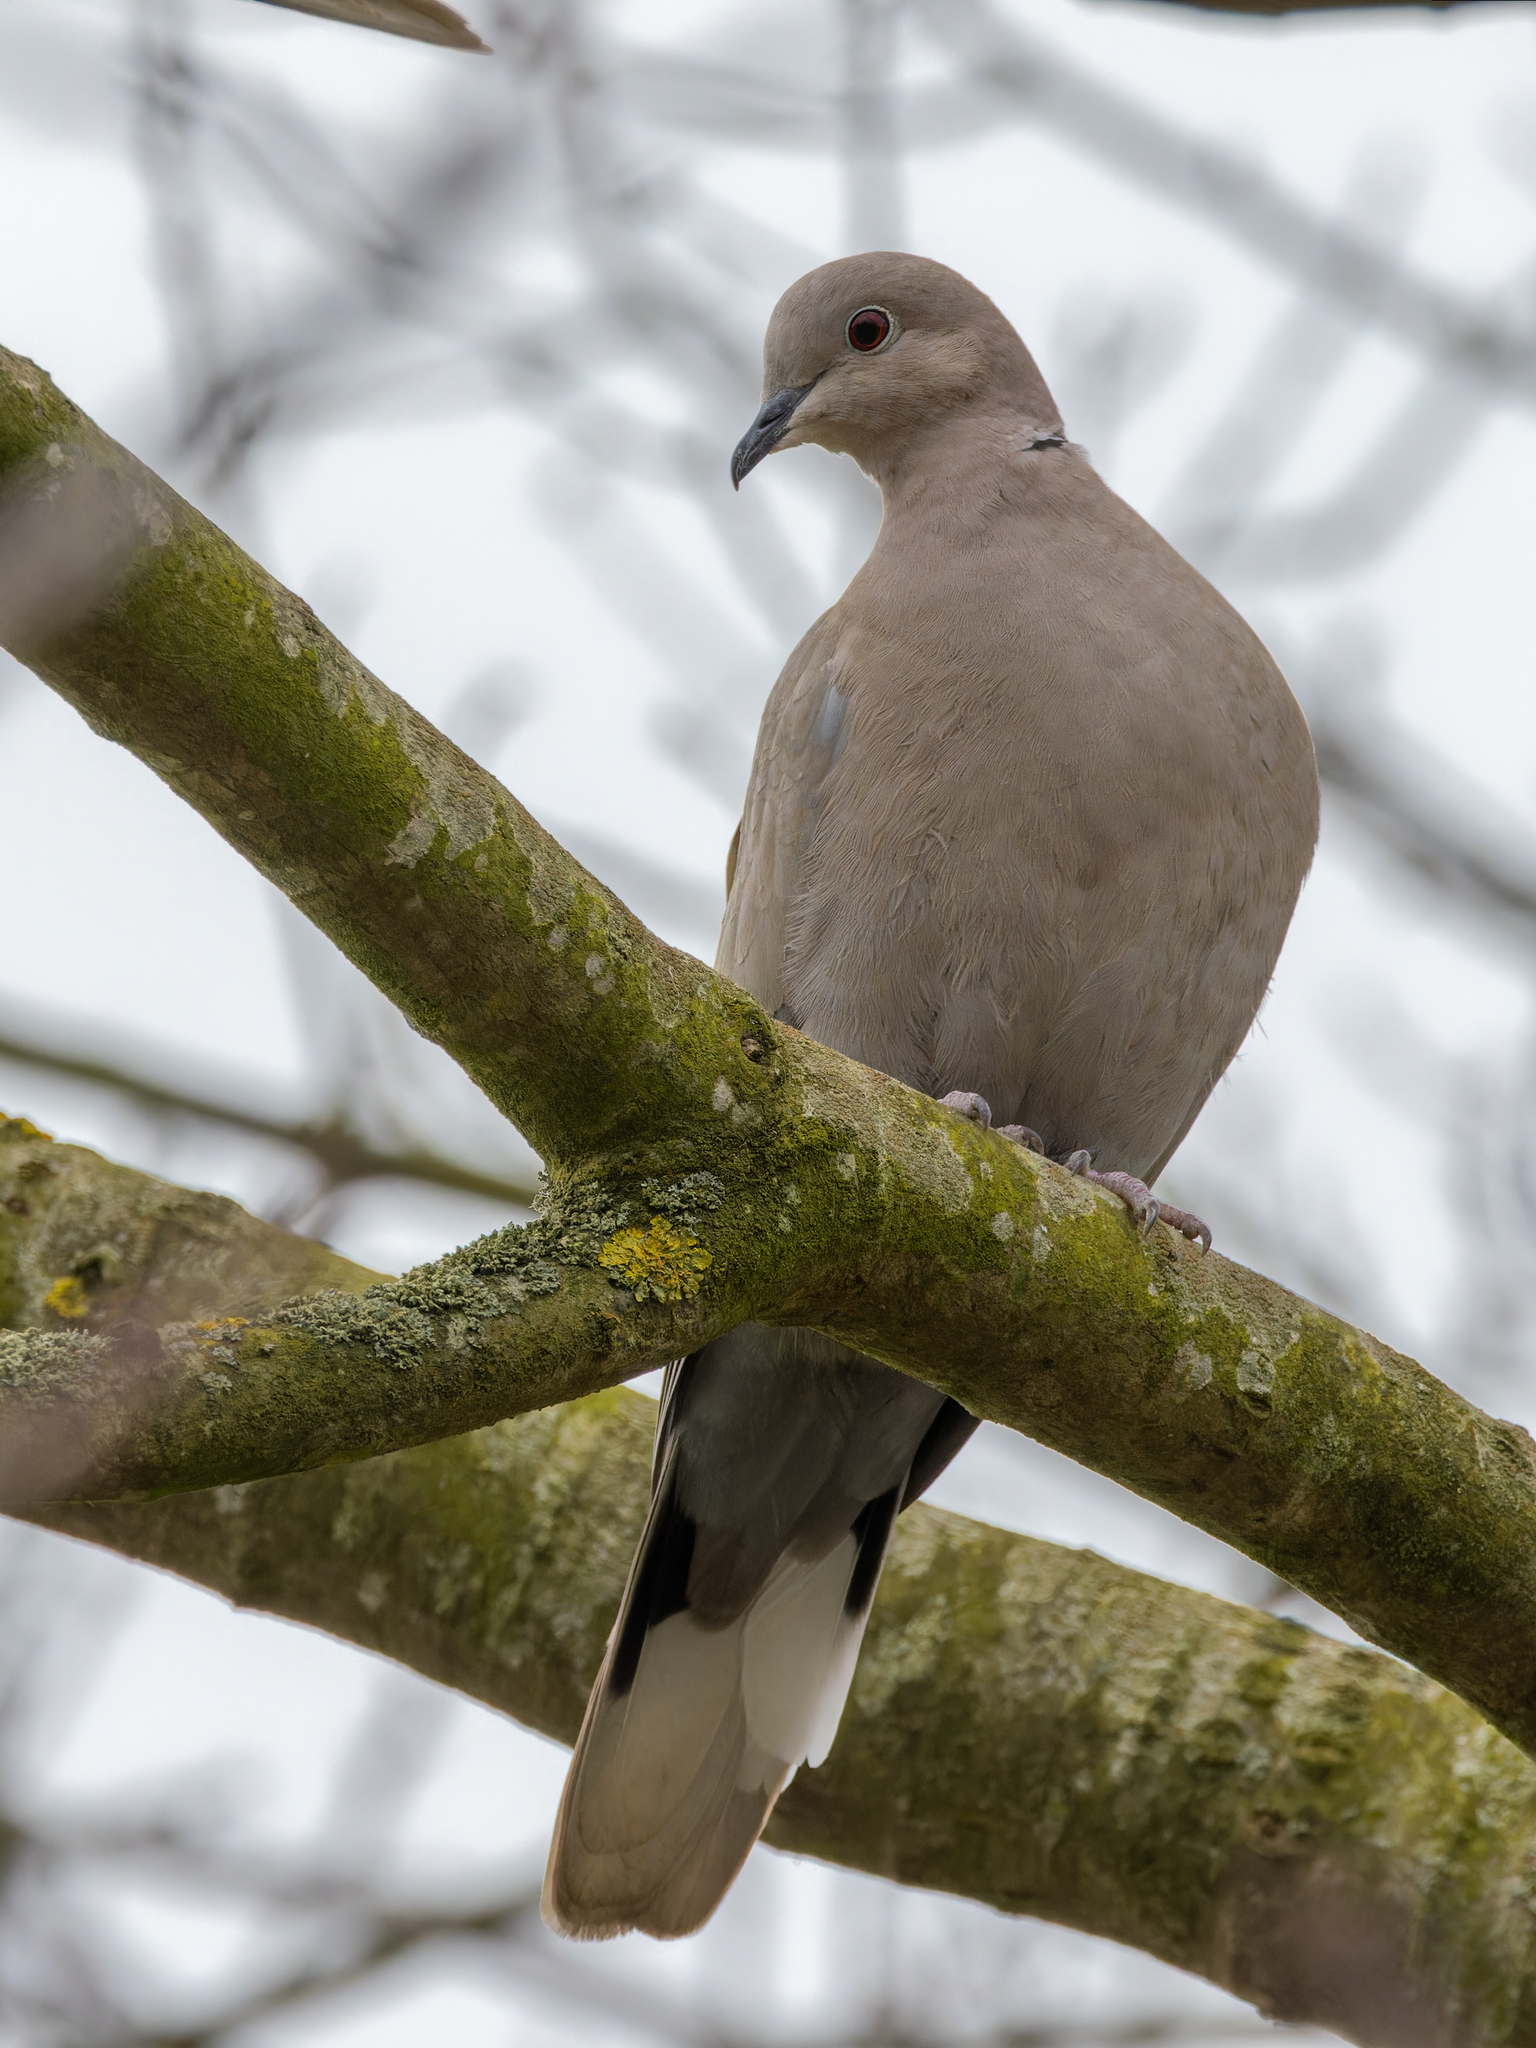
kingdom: Animalia
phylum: Chordata
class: Aves
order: Columbiformes
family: Columbidae
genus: Streptopelia
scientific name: Streptopelia decaocto
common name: Eurasian collared dove
